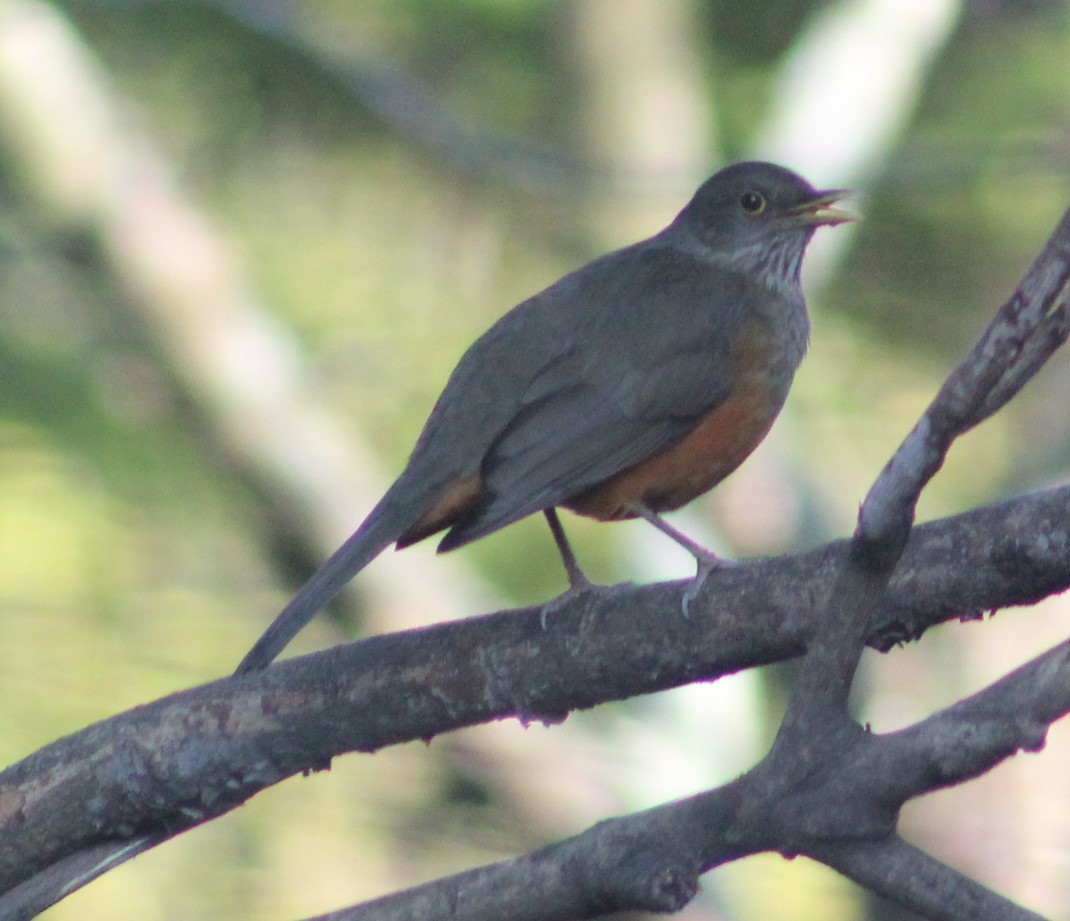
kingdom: Animalia
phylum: Chordata
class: Aves
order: Passeriformes
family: Turdidae
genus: Turdus
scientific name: Turdus rufiventris
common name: Rufous-bellied thrush
